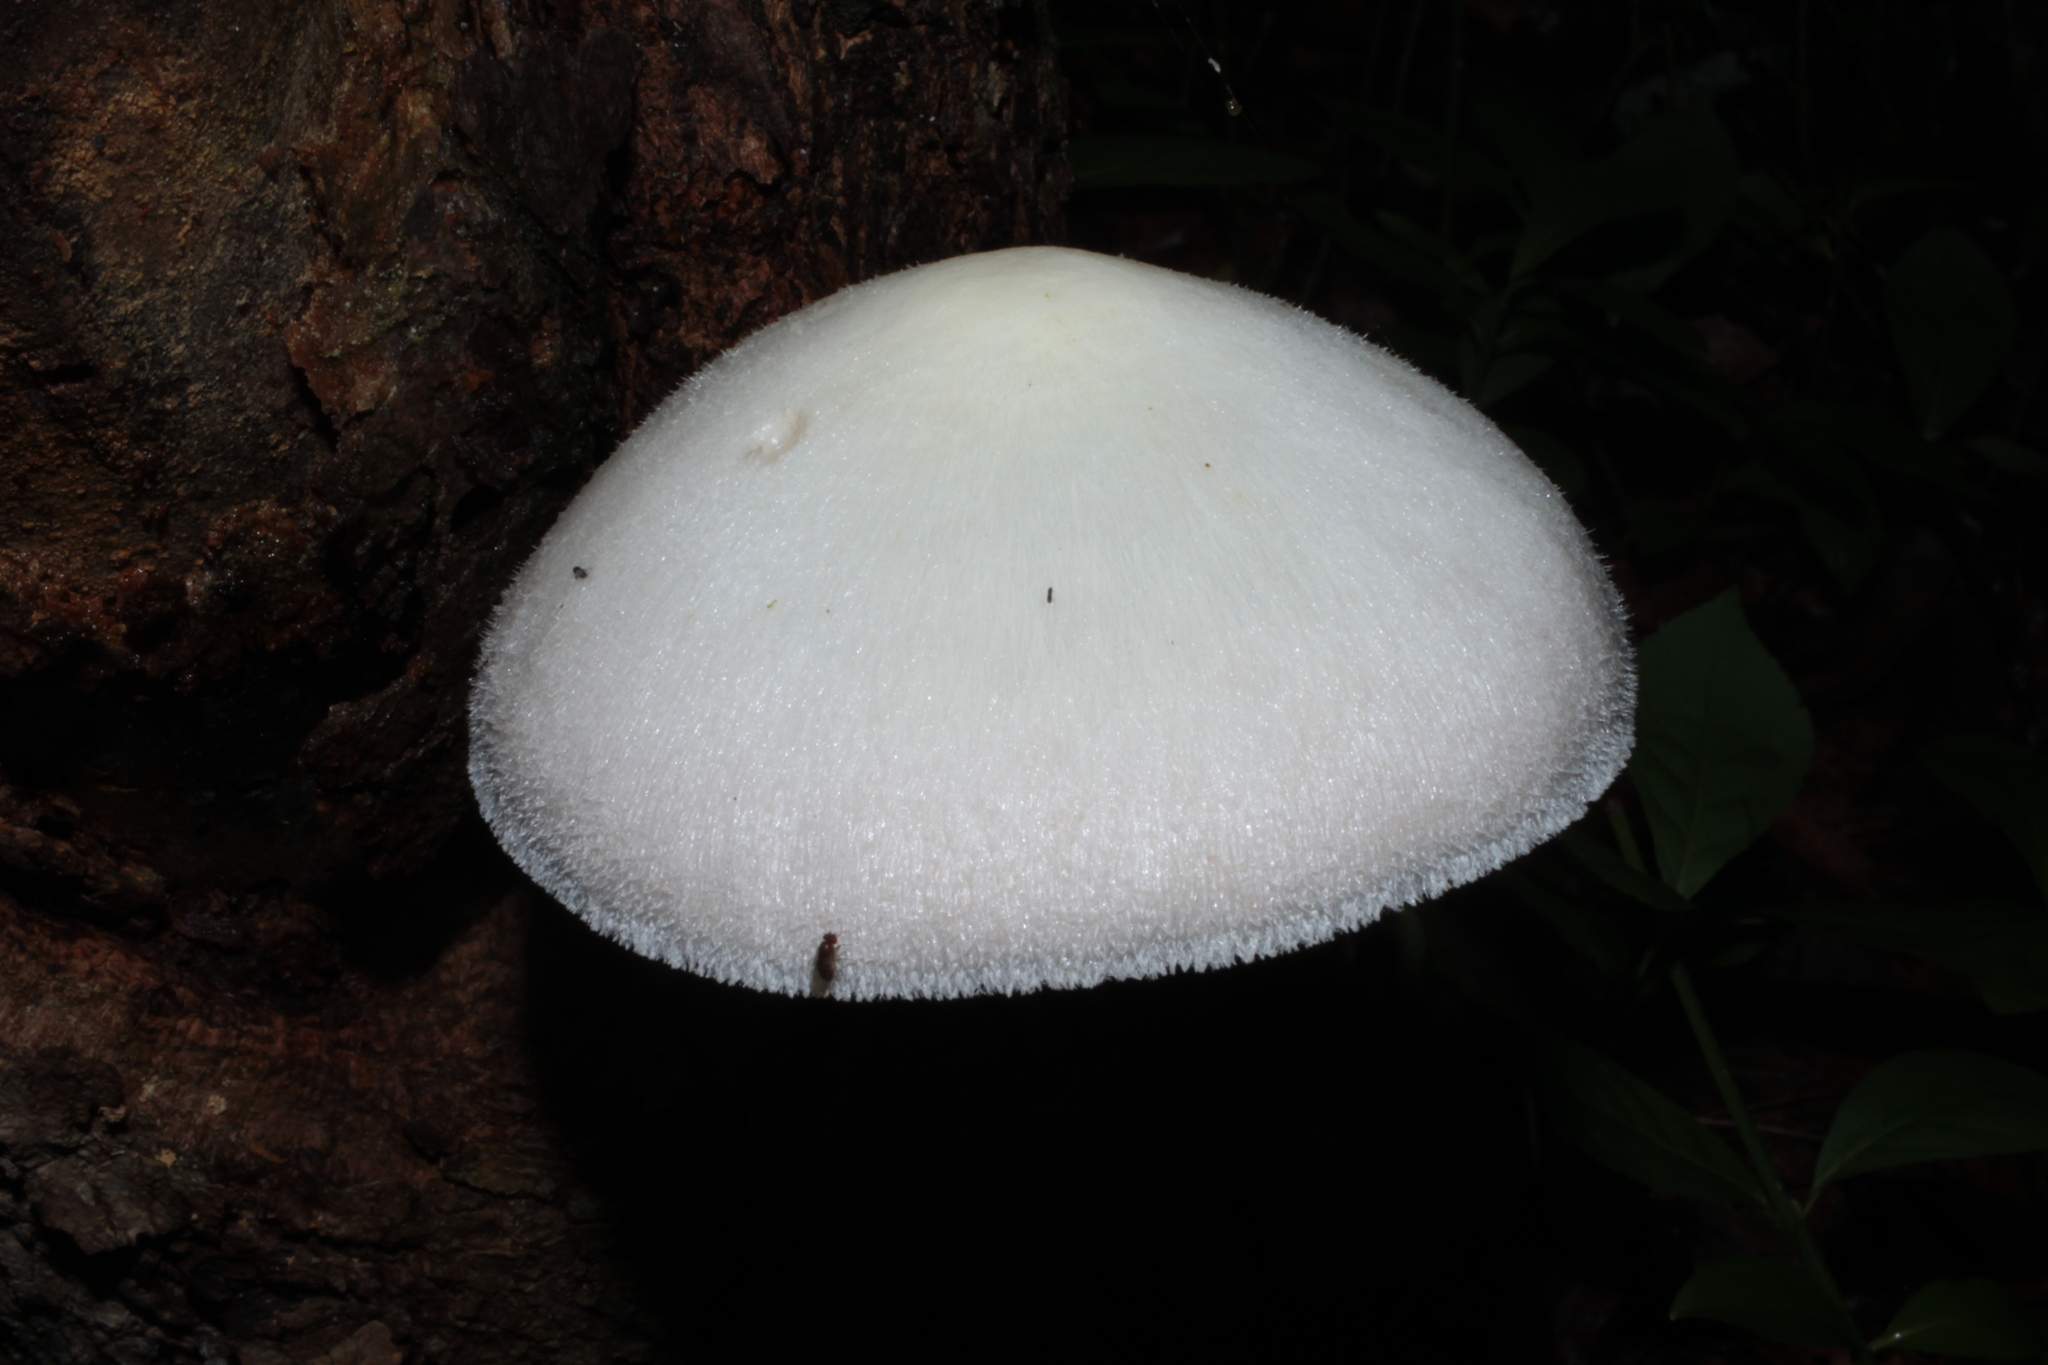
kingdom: Fungi
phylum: Basidiomycota
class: Agaricomycetes
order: Agaricales
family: Pluteaceae
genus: Volvariella
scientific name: Volvariella bombycina
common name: Silky rosegill
